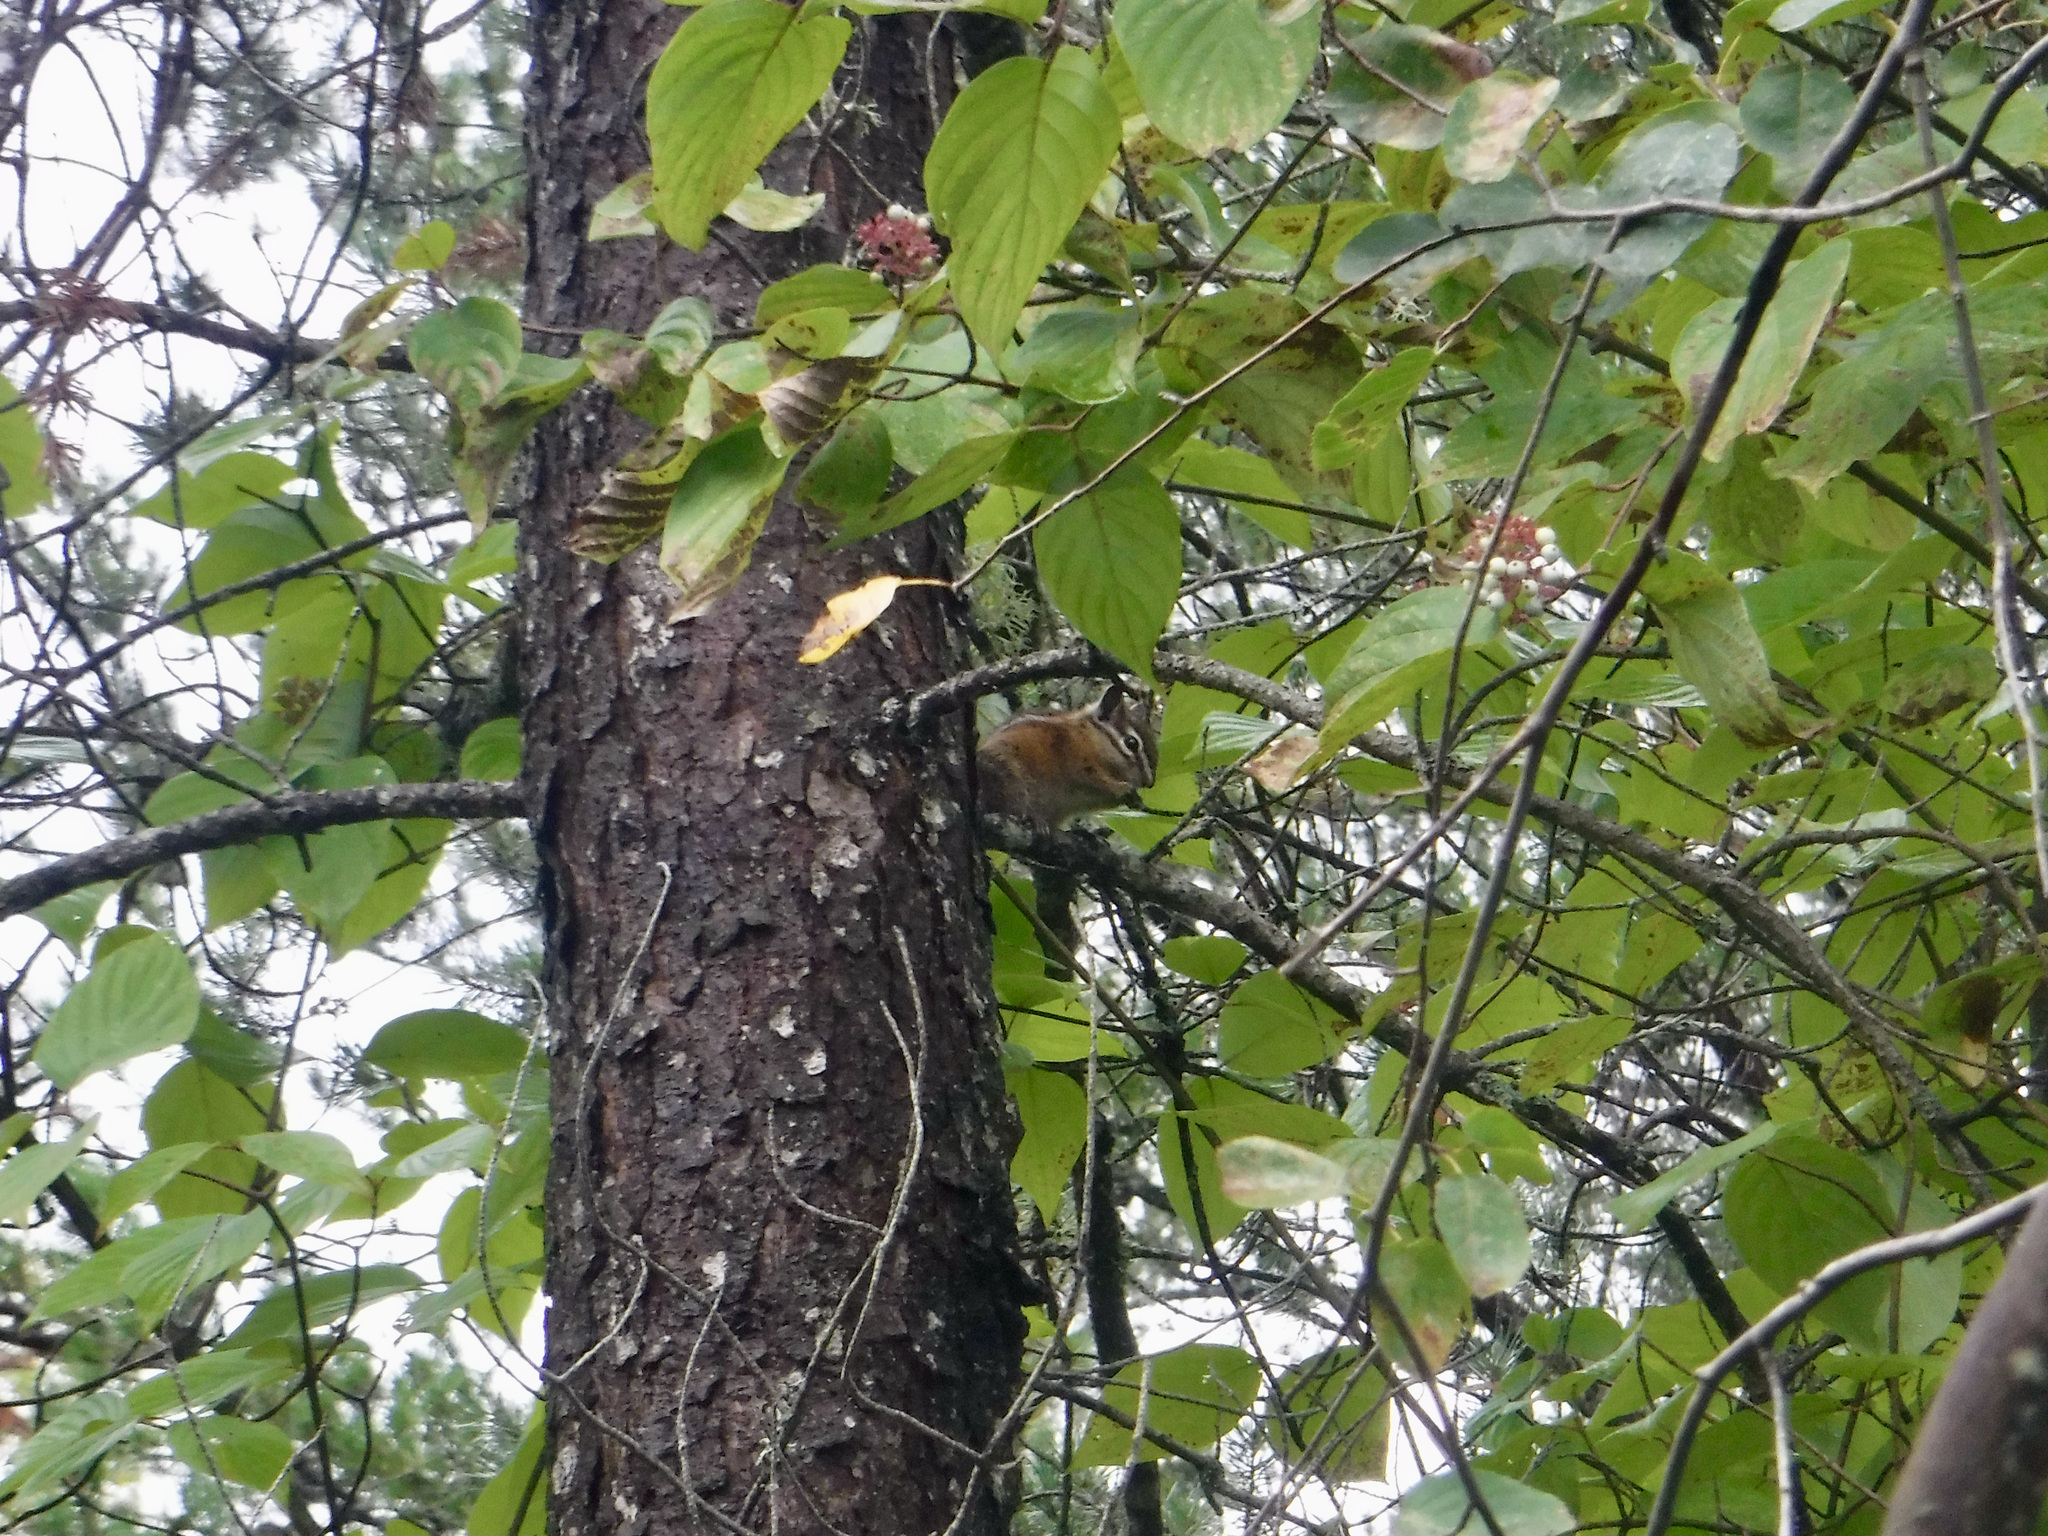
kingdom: Animalia
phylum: Chordata
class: Mammalia
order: Rodentia
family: Sciuridae
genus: Tamias
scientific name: Tamias minimus
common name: Least chipmunk
